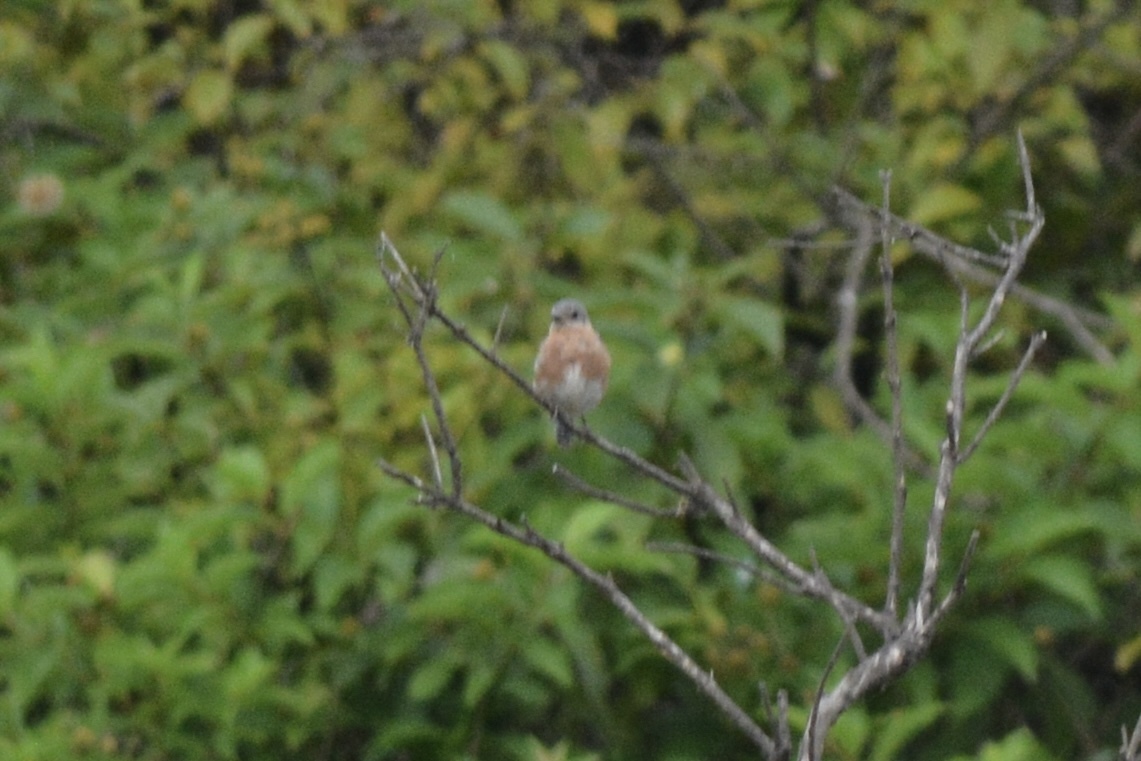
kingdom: Animalia
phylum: Chordata
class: Aves
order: Passeriformes
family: Turdidae
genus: Sialia
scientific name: Sialia sialis
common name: Eastern bluebird
